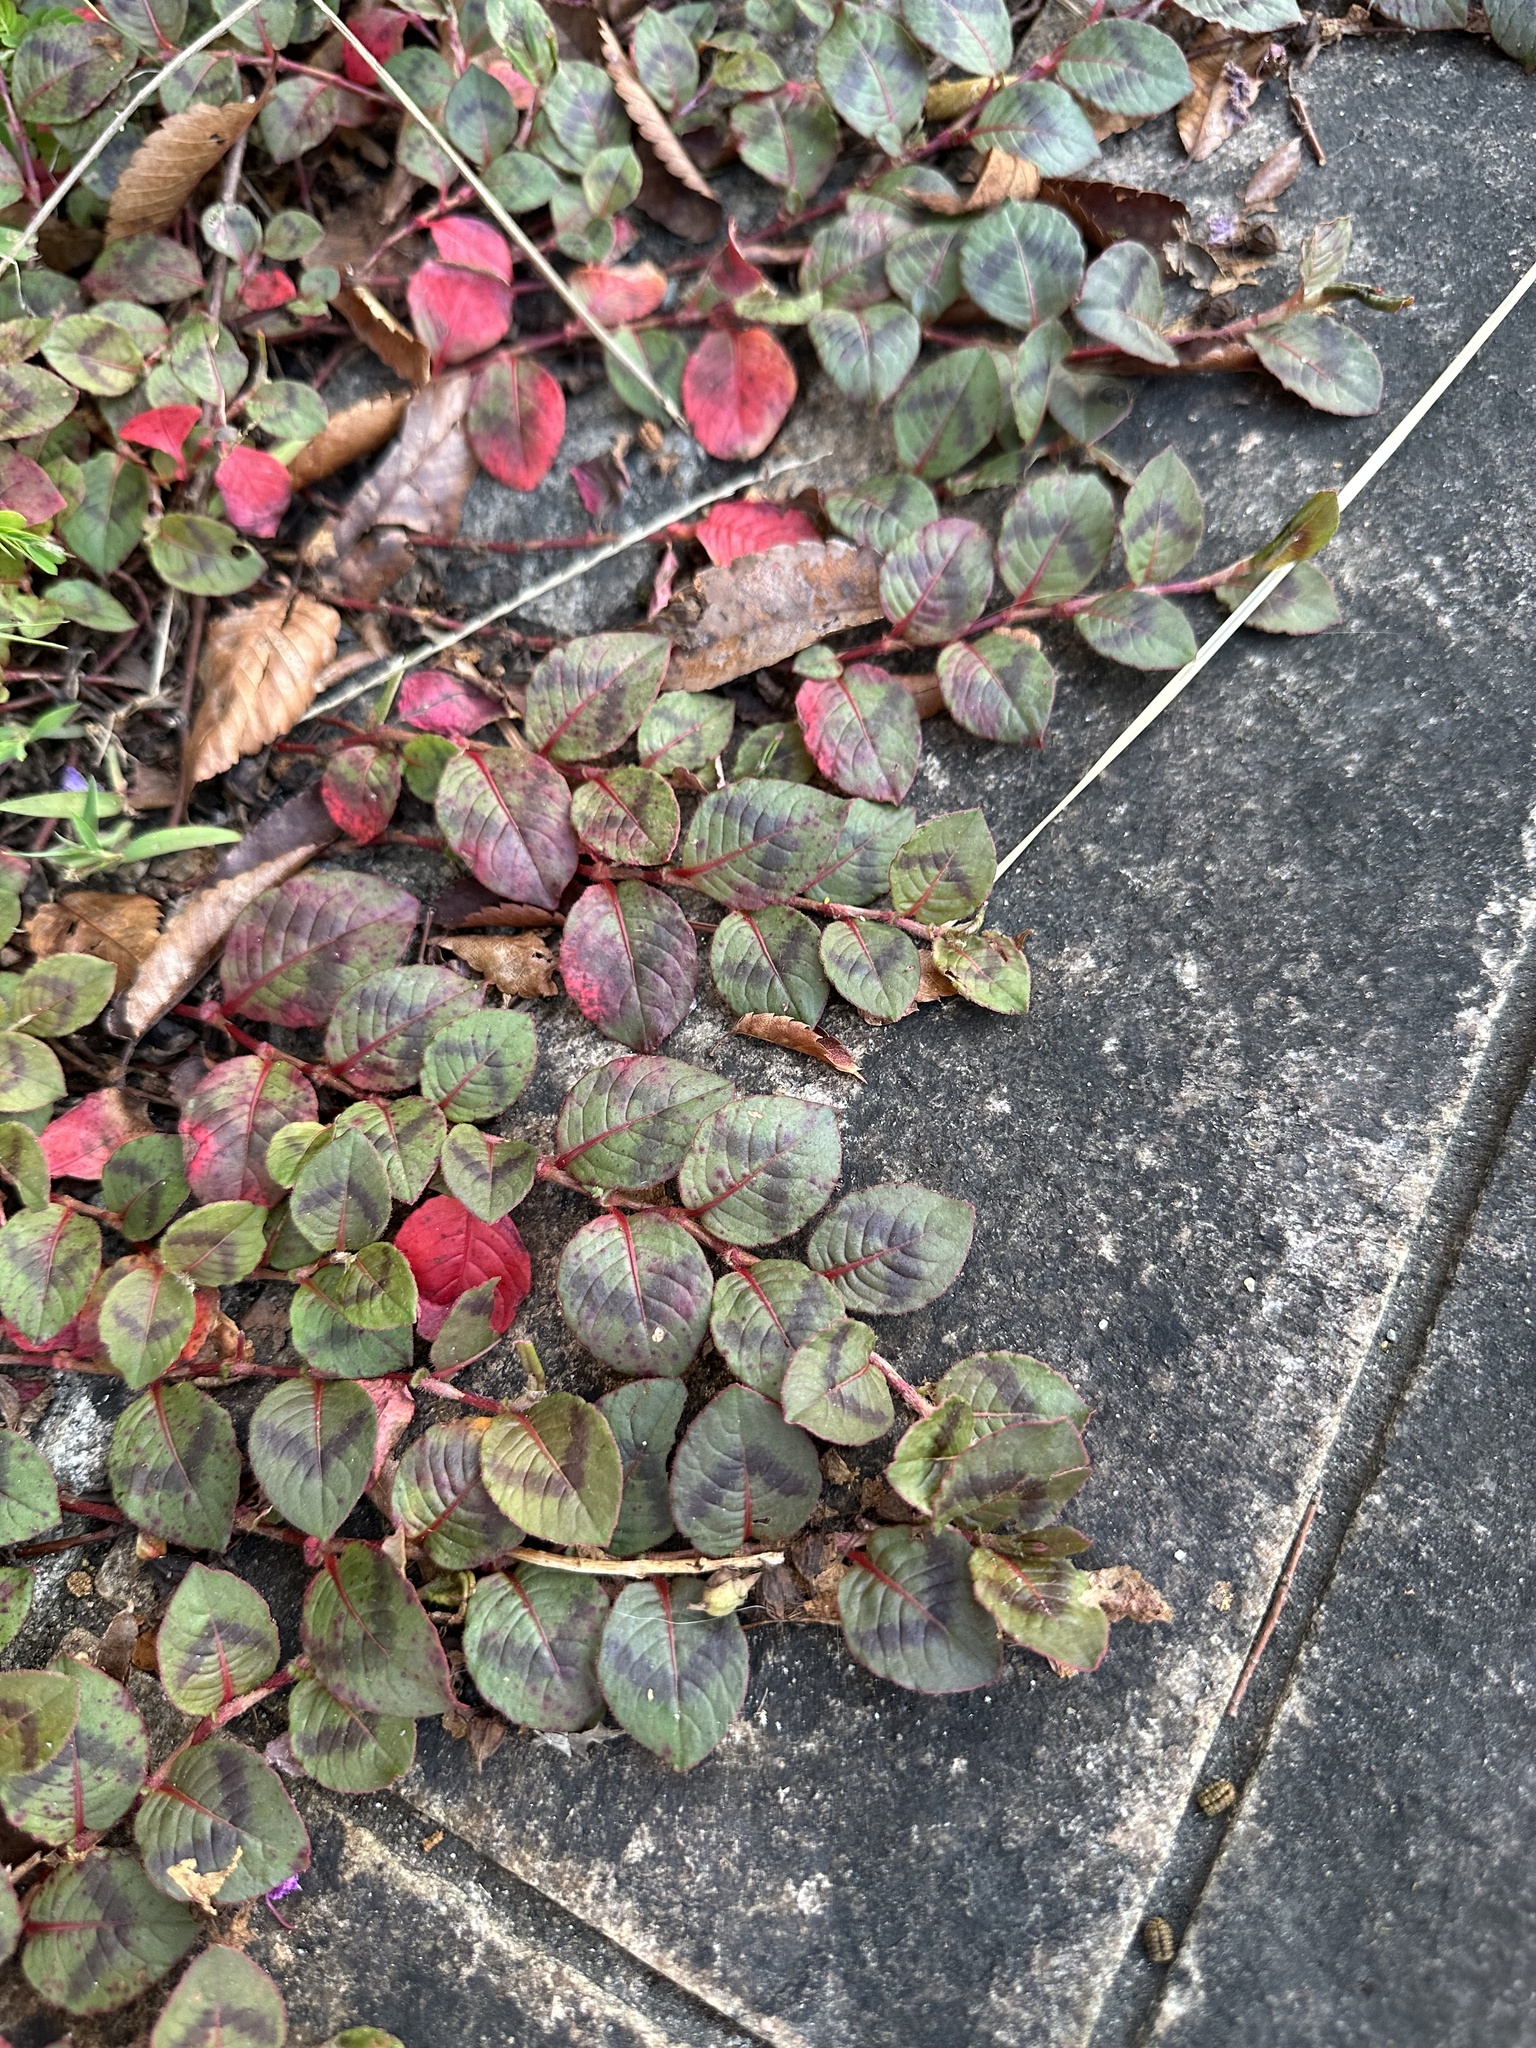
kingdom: Plantae
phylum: Tracheophyta
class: Magnoliopsida
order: Caryophyllales
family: Polygonaceae
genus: Persicaria
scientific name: Persicaria capitata
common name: Pinkhead smartweed
